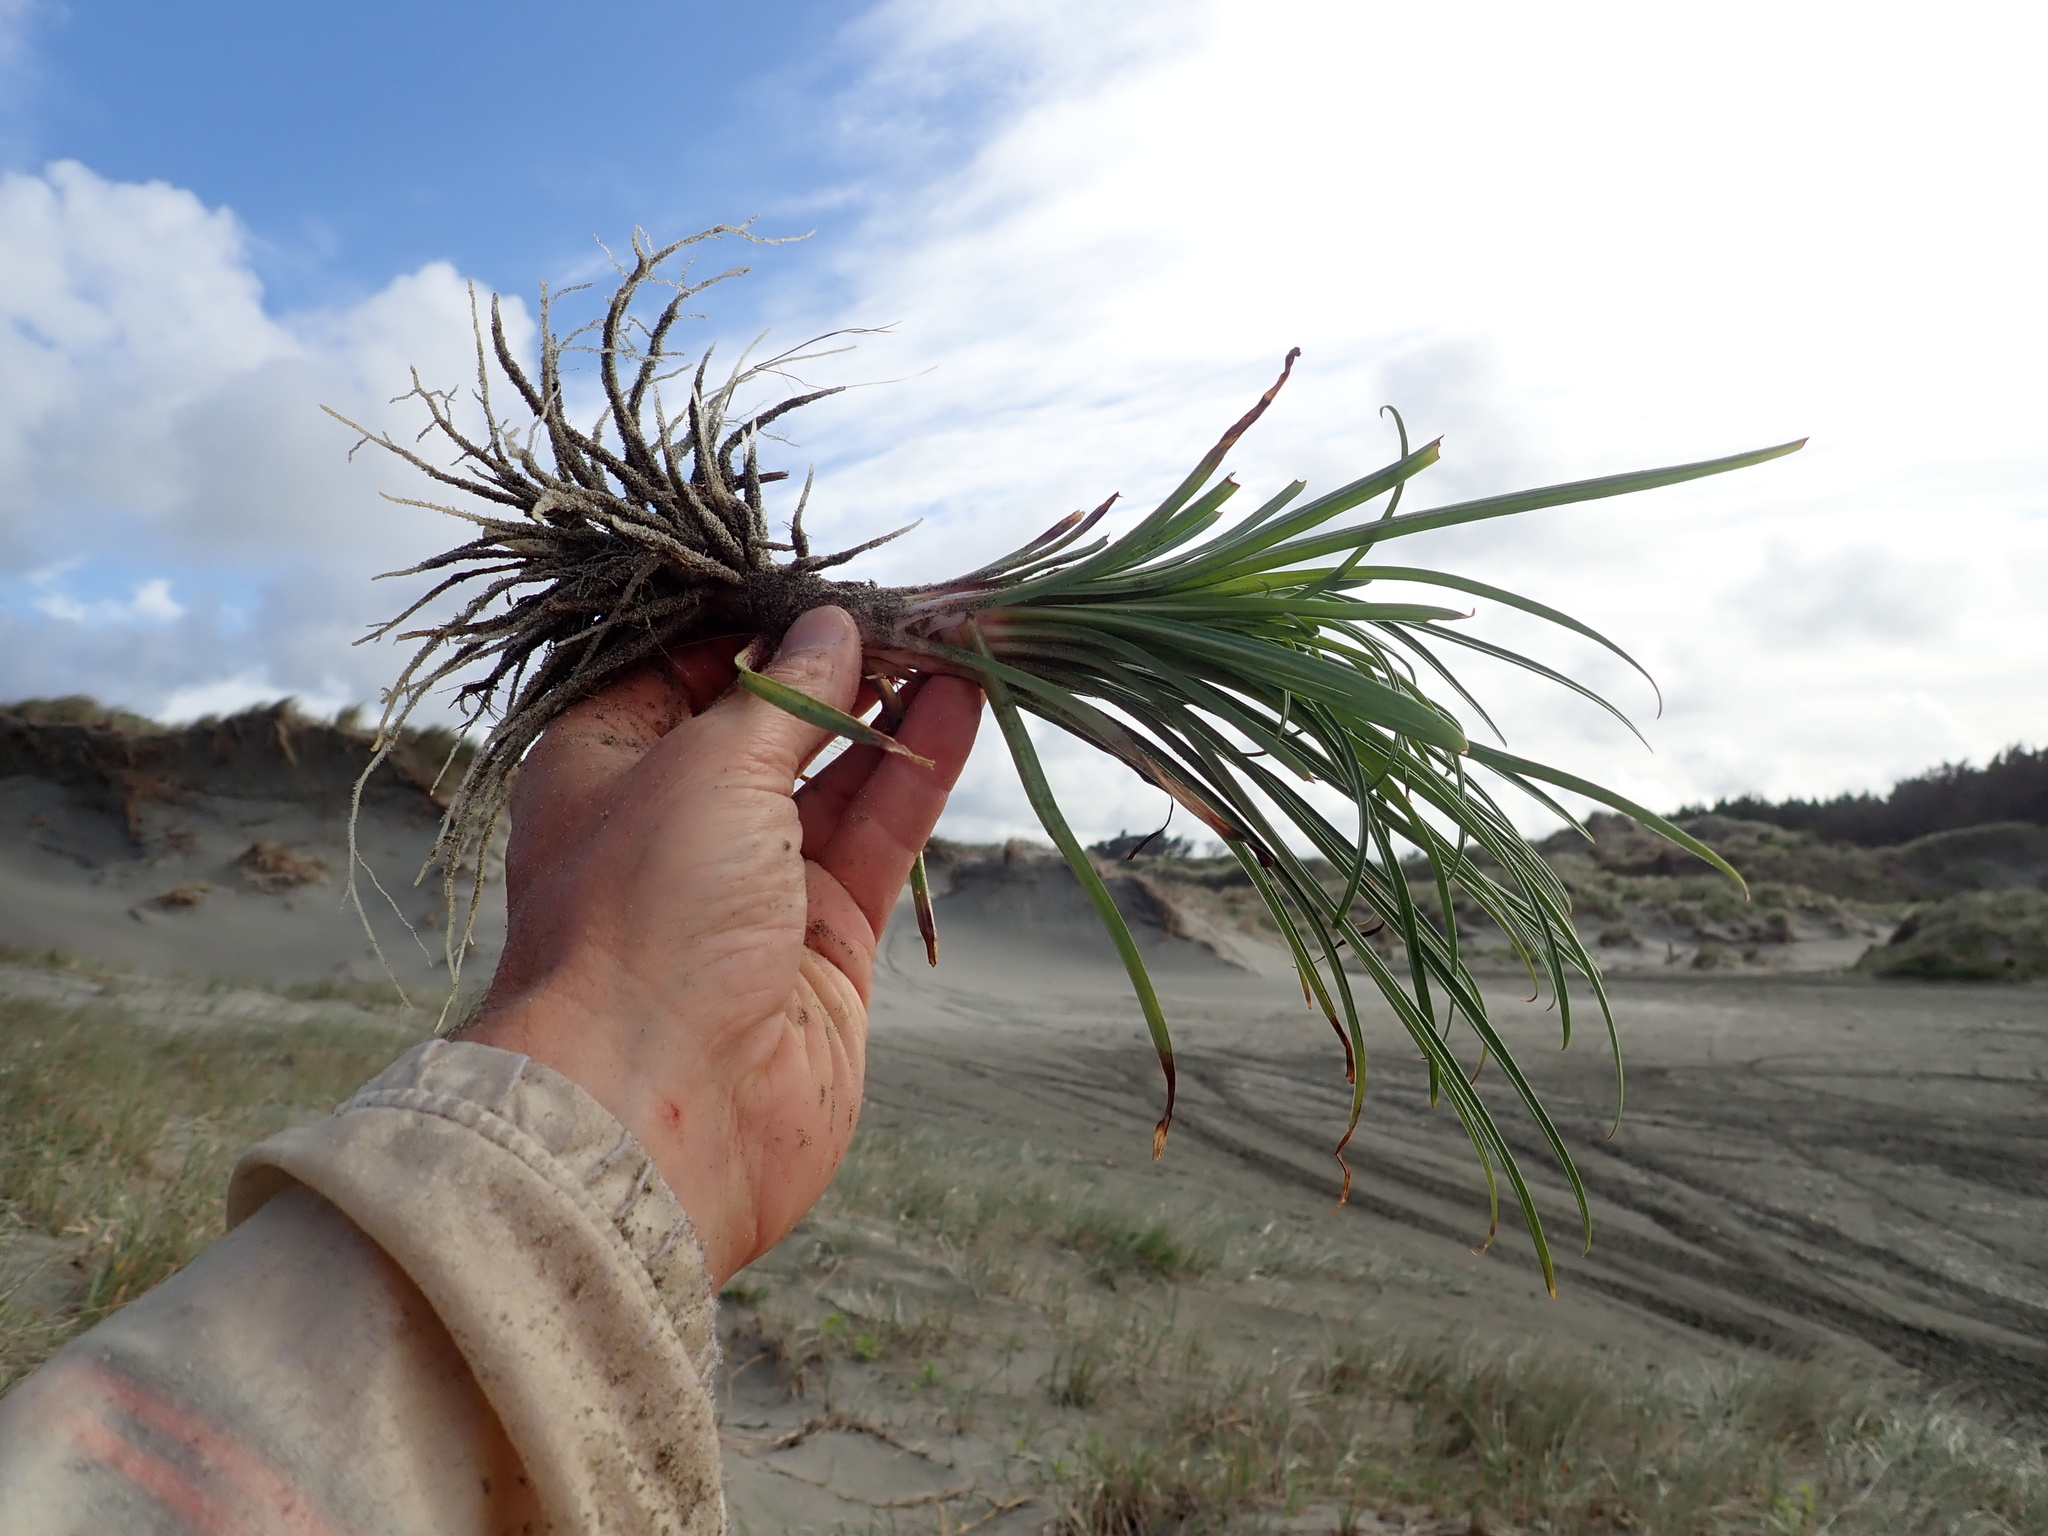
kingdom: Plantae
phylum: Tracheophyta
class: Liliopsida
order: Liliales
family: Liliaceae
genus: Lilium
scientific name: Lilium formosanum
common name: Formosa lily
